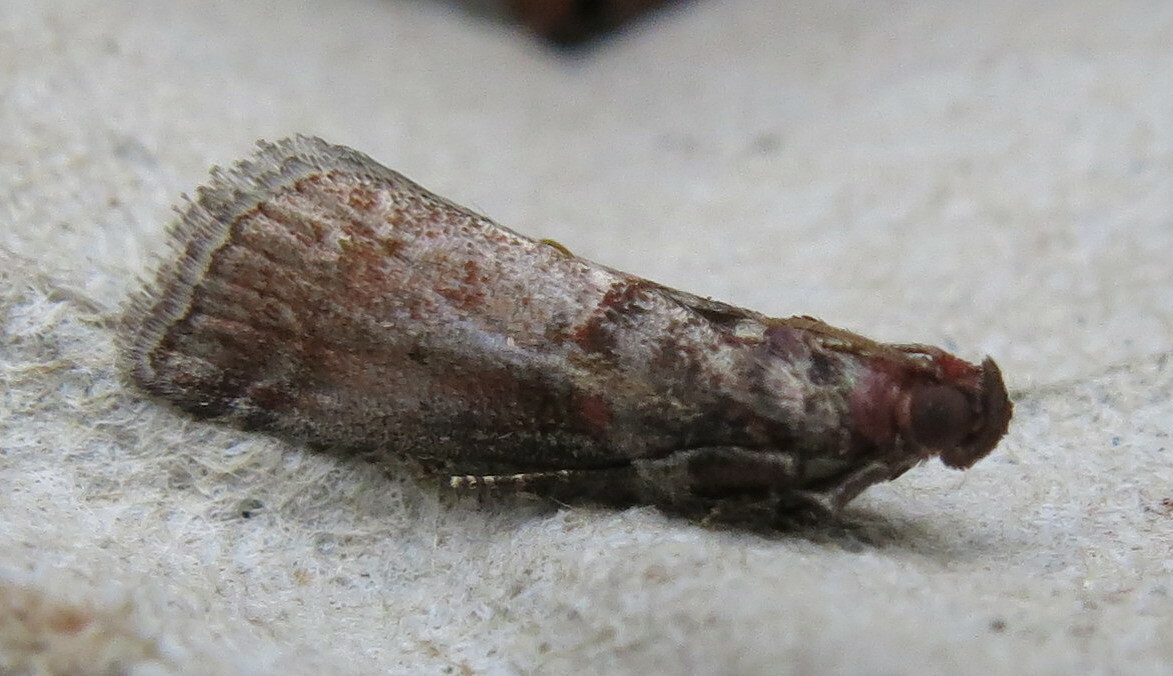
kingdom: Animalia
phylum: Arthropoda
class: Insecta
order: Lepidoptera
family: Pyralidae
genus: Acrobasis
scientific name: Acrobasis advenella
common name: Grey knot-horn
